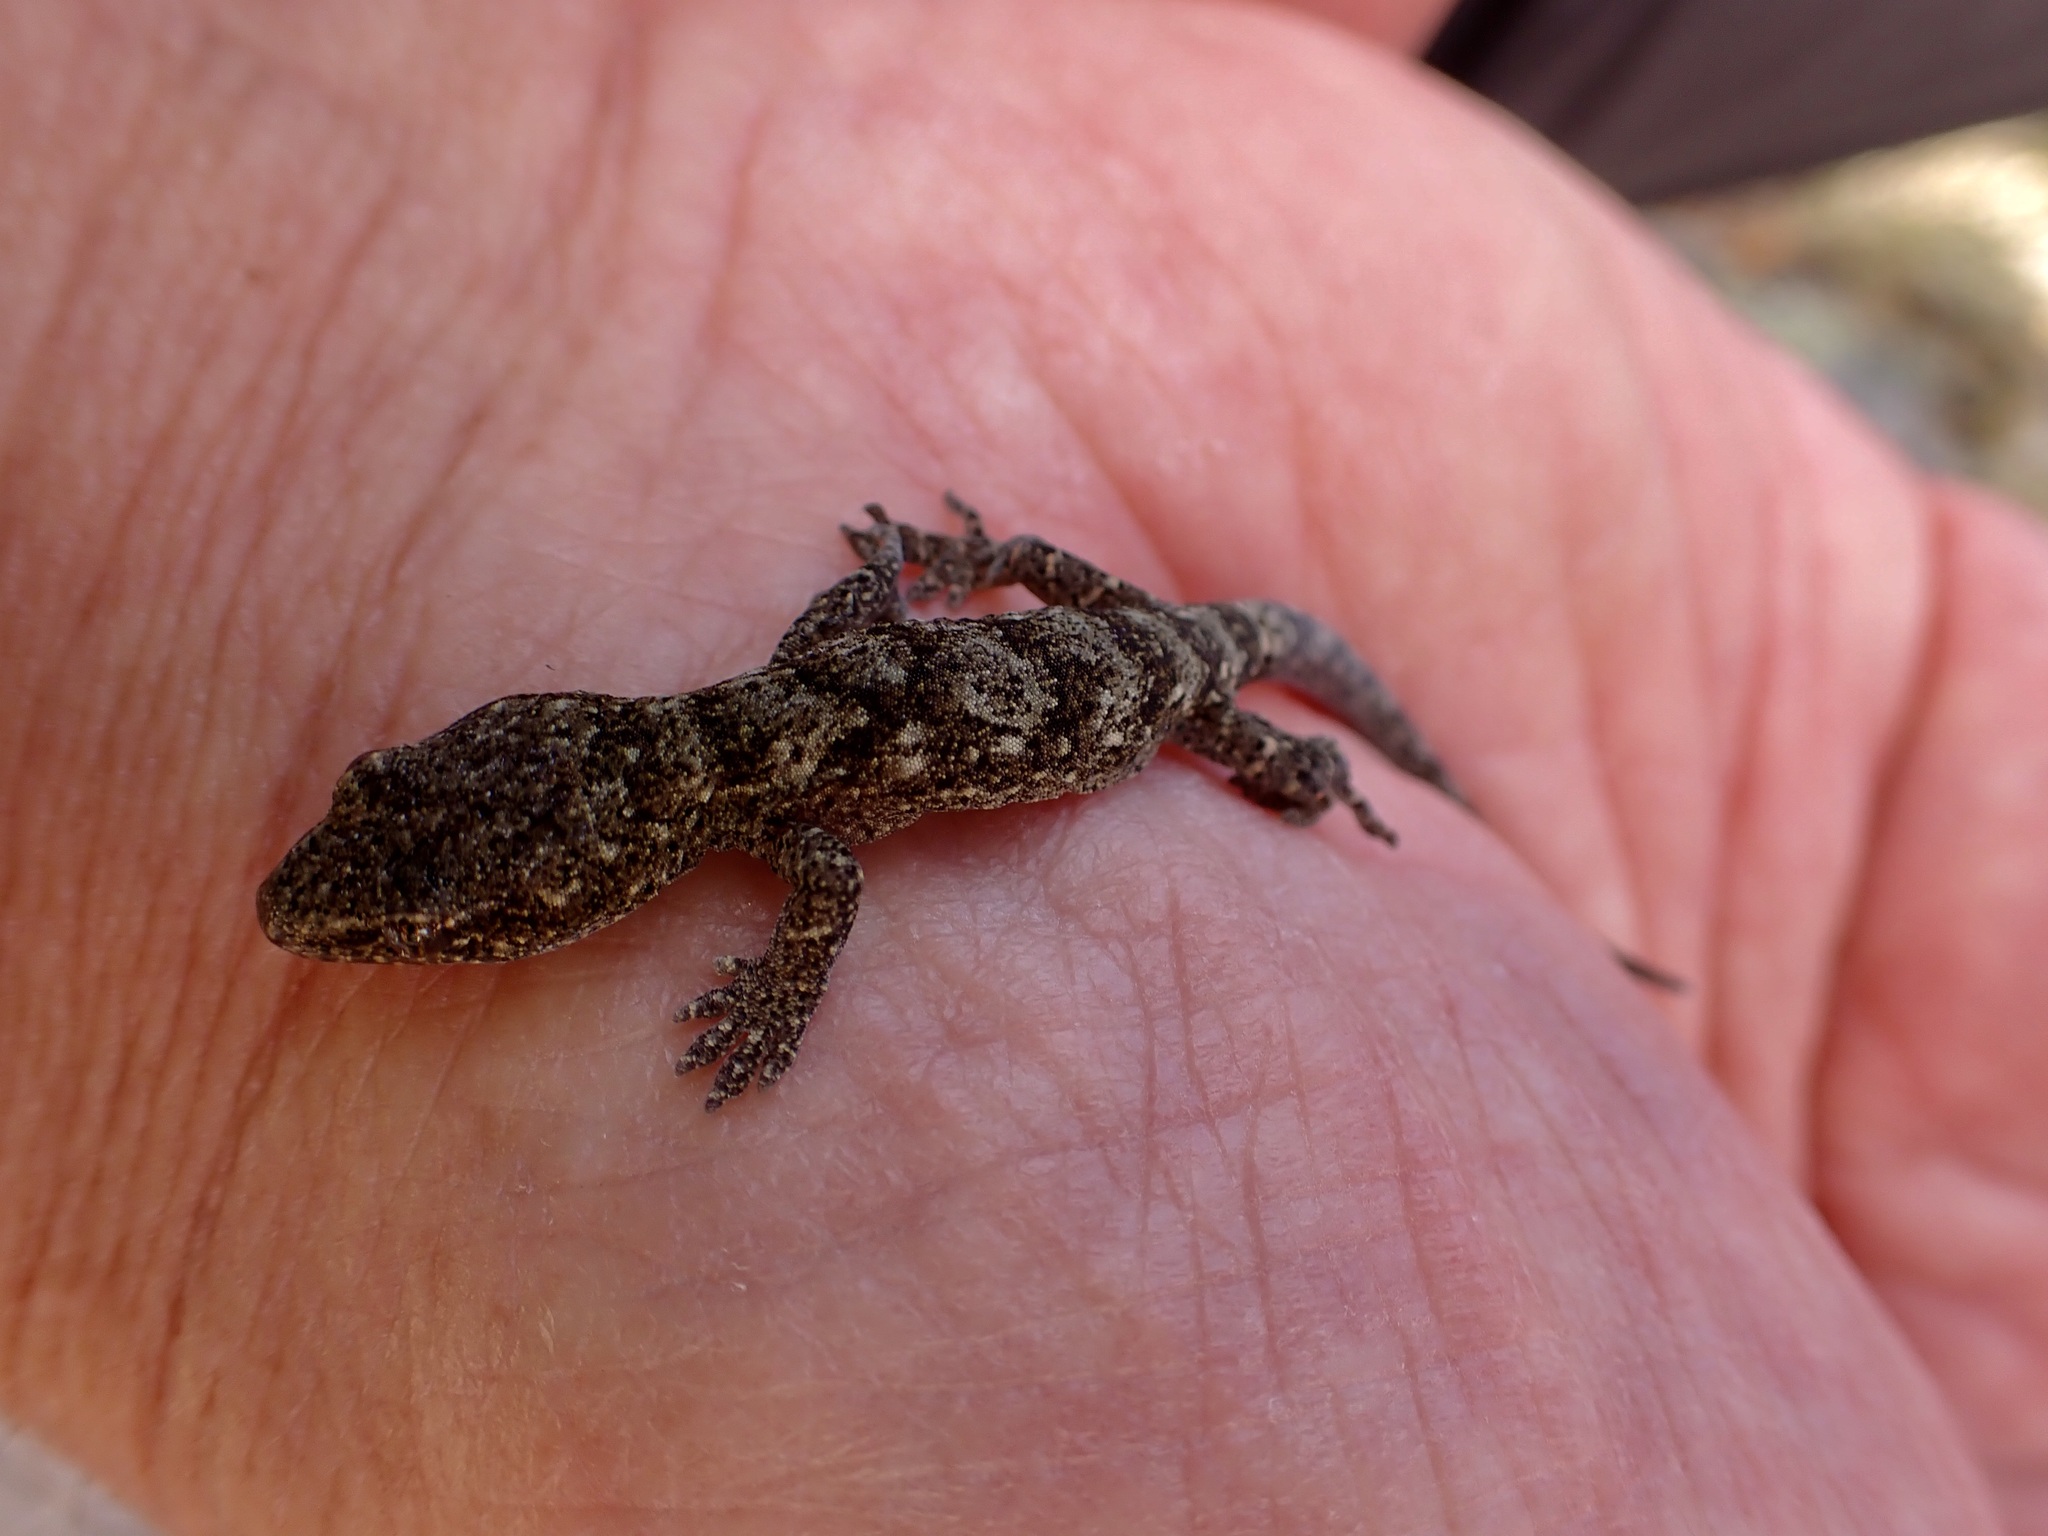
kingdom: Animalia
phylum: Chordata
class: Squamata
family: Diplodactylidae
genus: Woodworthia
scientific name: Woodworthia brunnea
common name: Canterbury gecko
